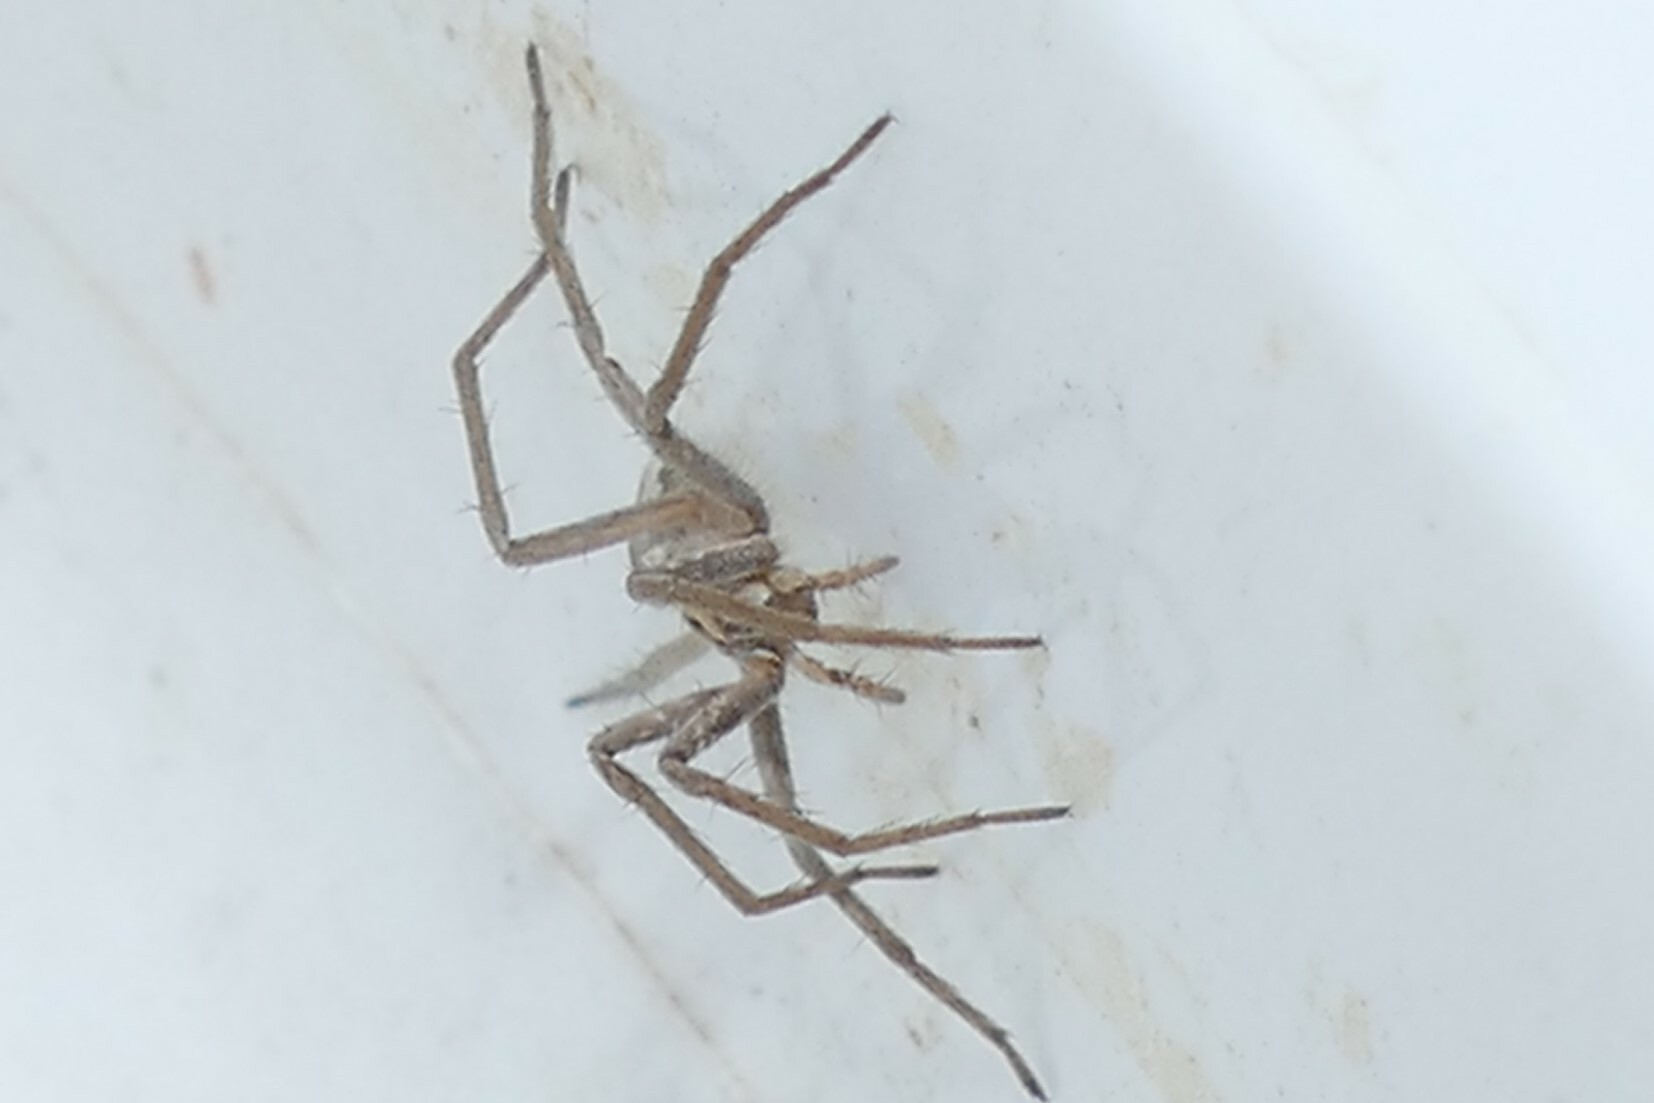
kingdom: Animalia
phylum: Arthropoda
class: Arachnida
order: Araneae
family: Pisauridae
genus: Pisaura
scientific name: Pisaura
